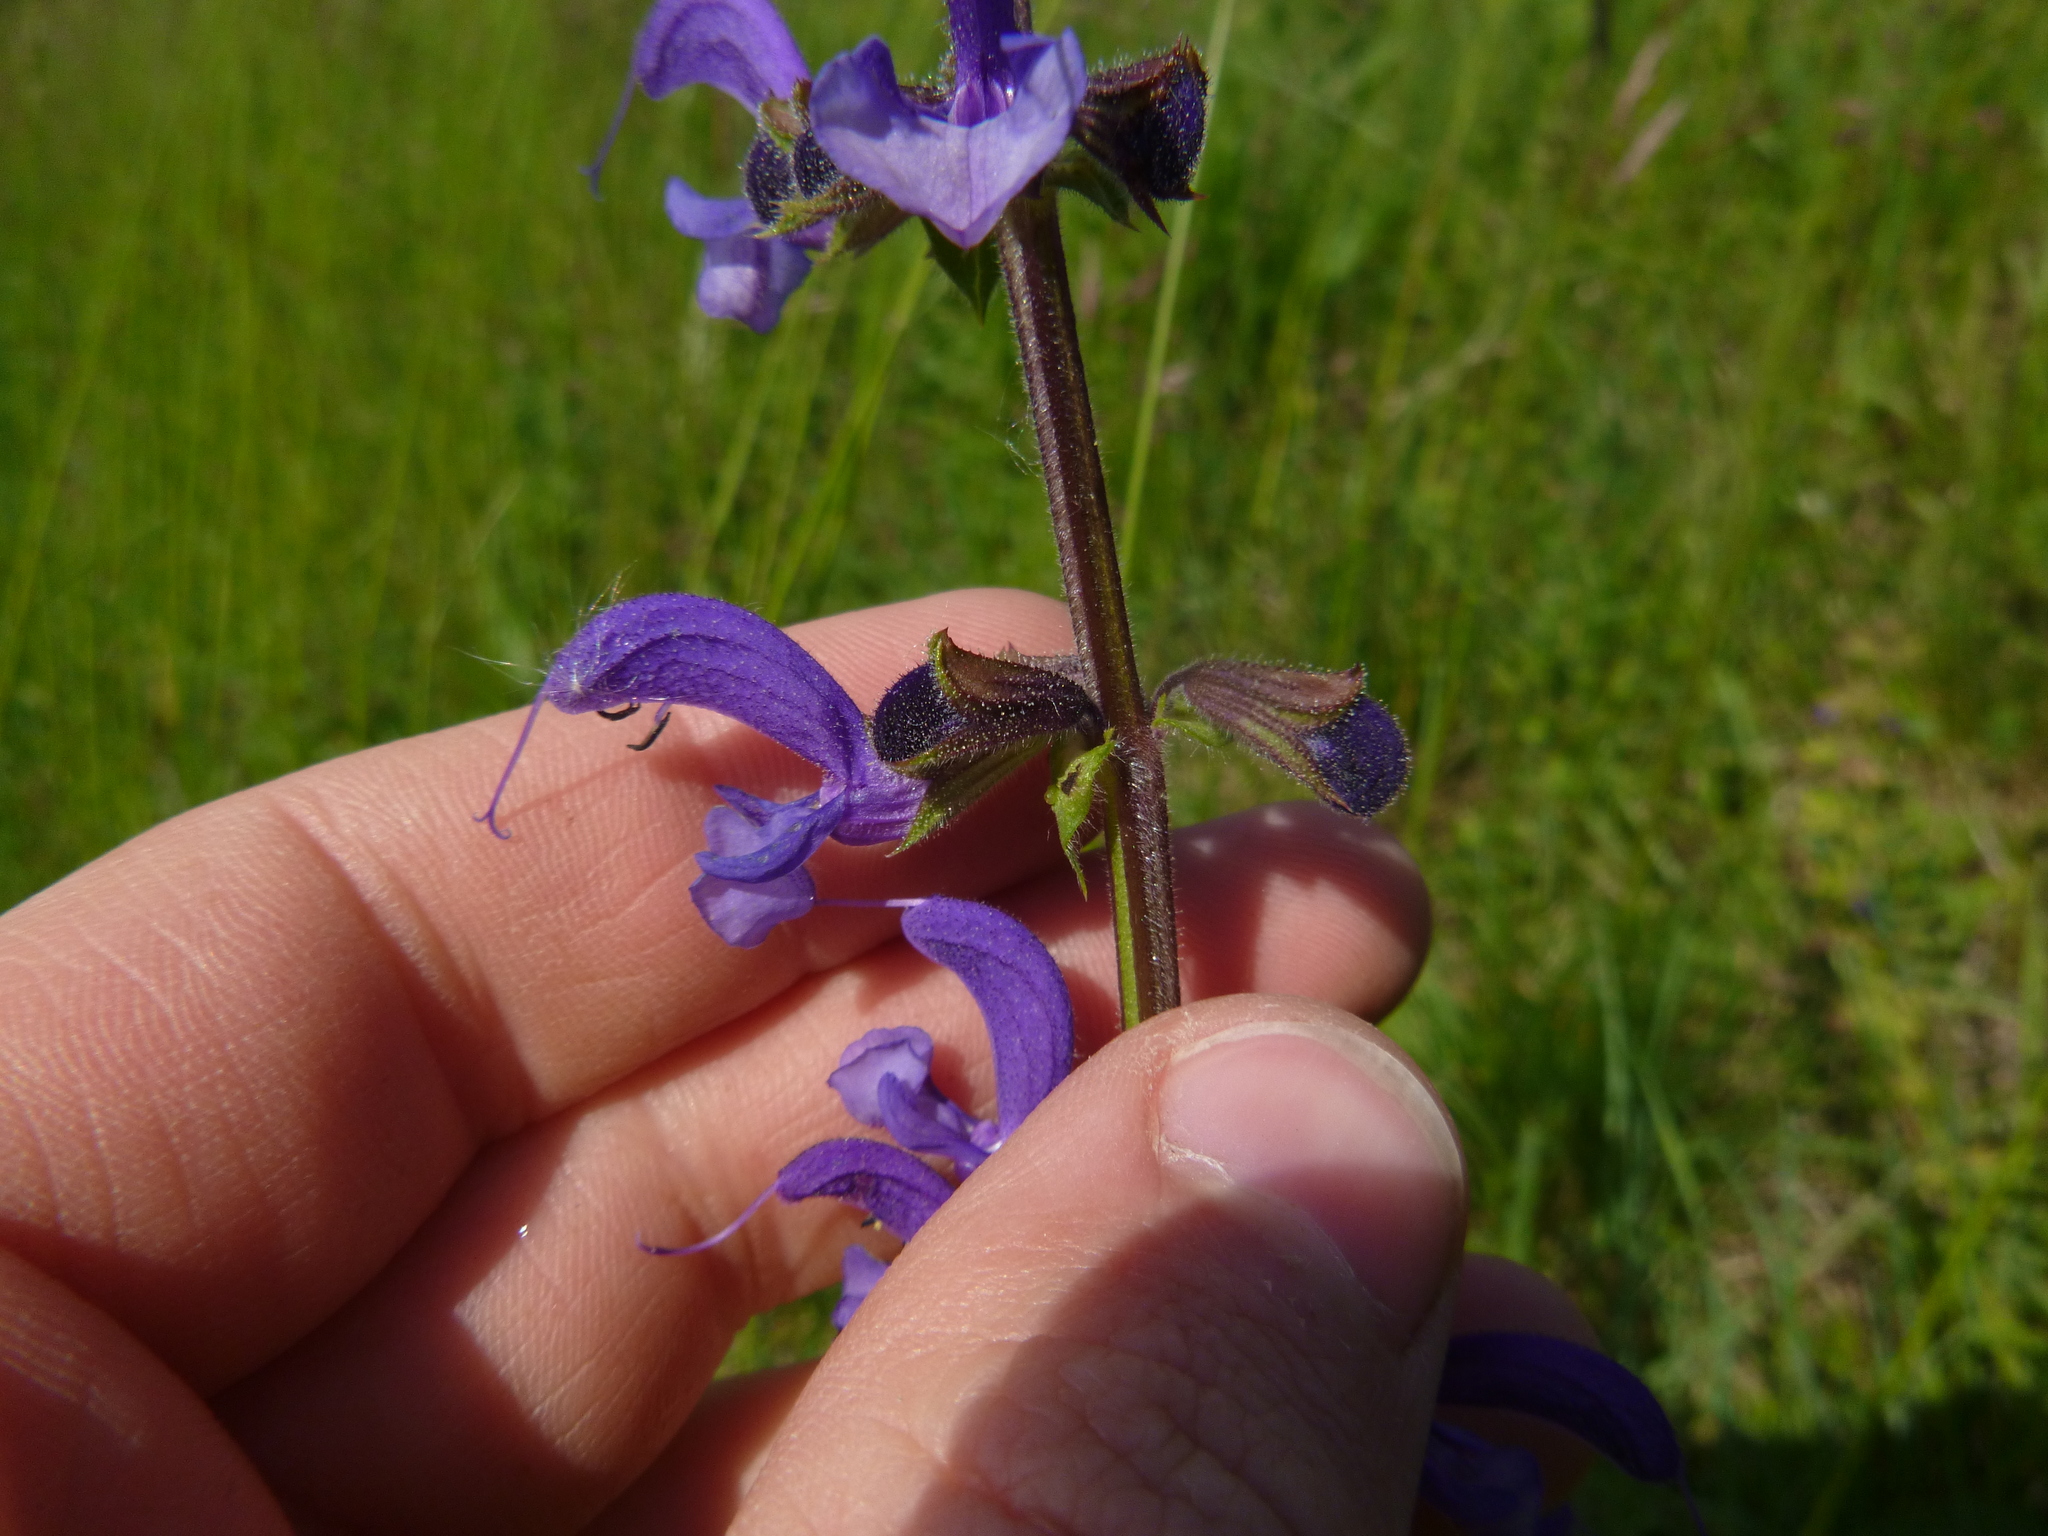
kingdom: Plantae
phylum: Tracheophyta
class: Magnoliopsida
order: Lamiales
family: Lamiaceae
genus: Salvia
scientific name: Salvia pratensis
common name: Meadow sage
